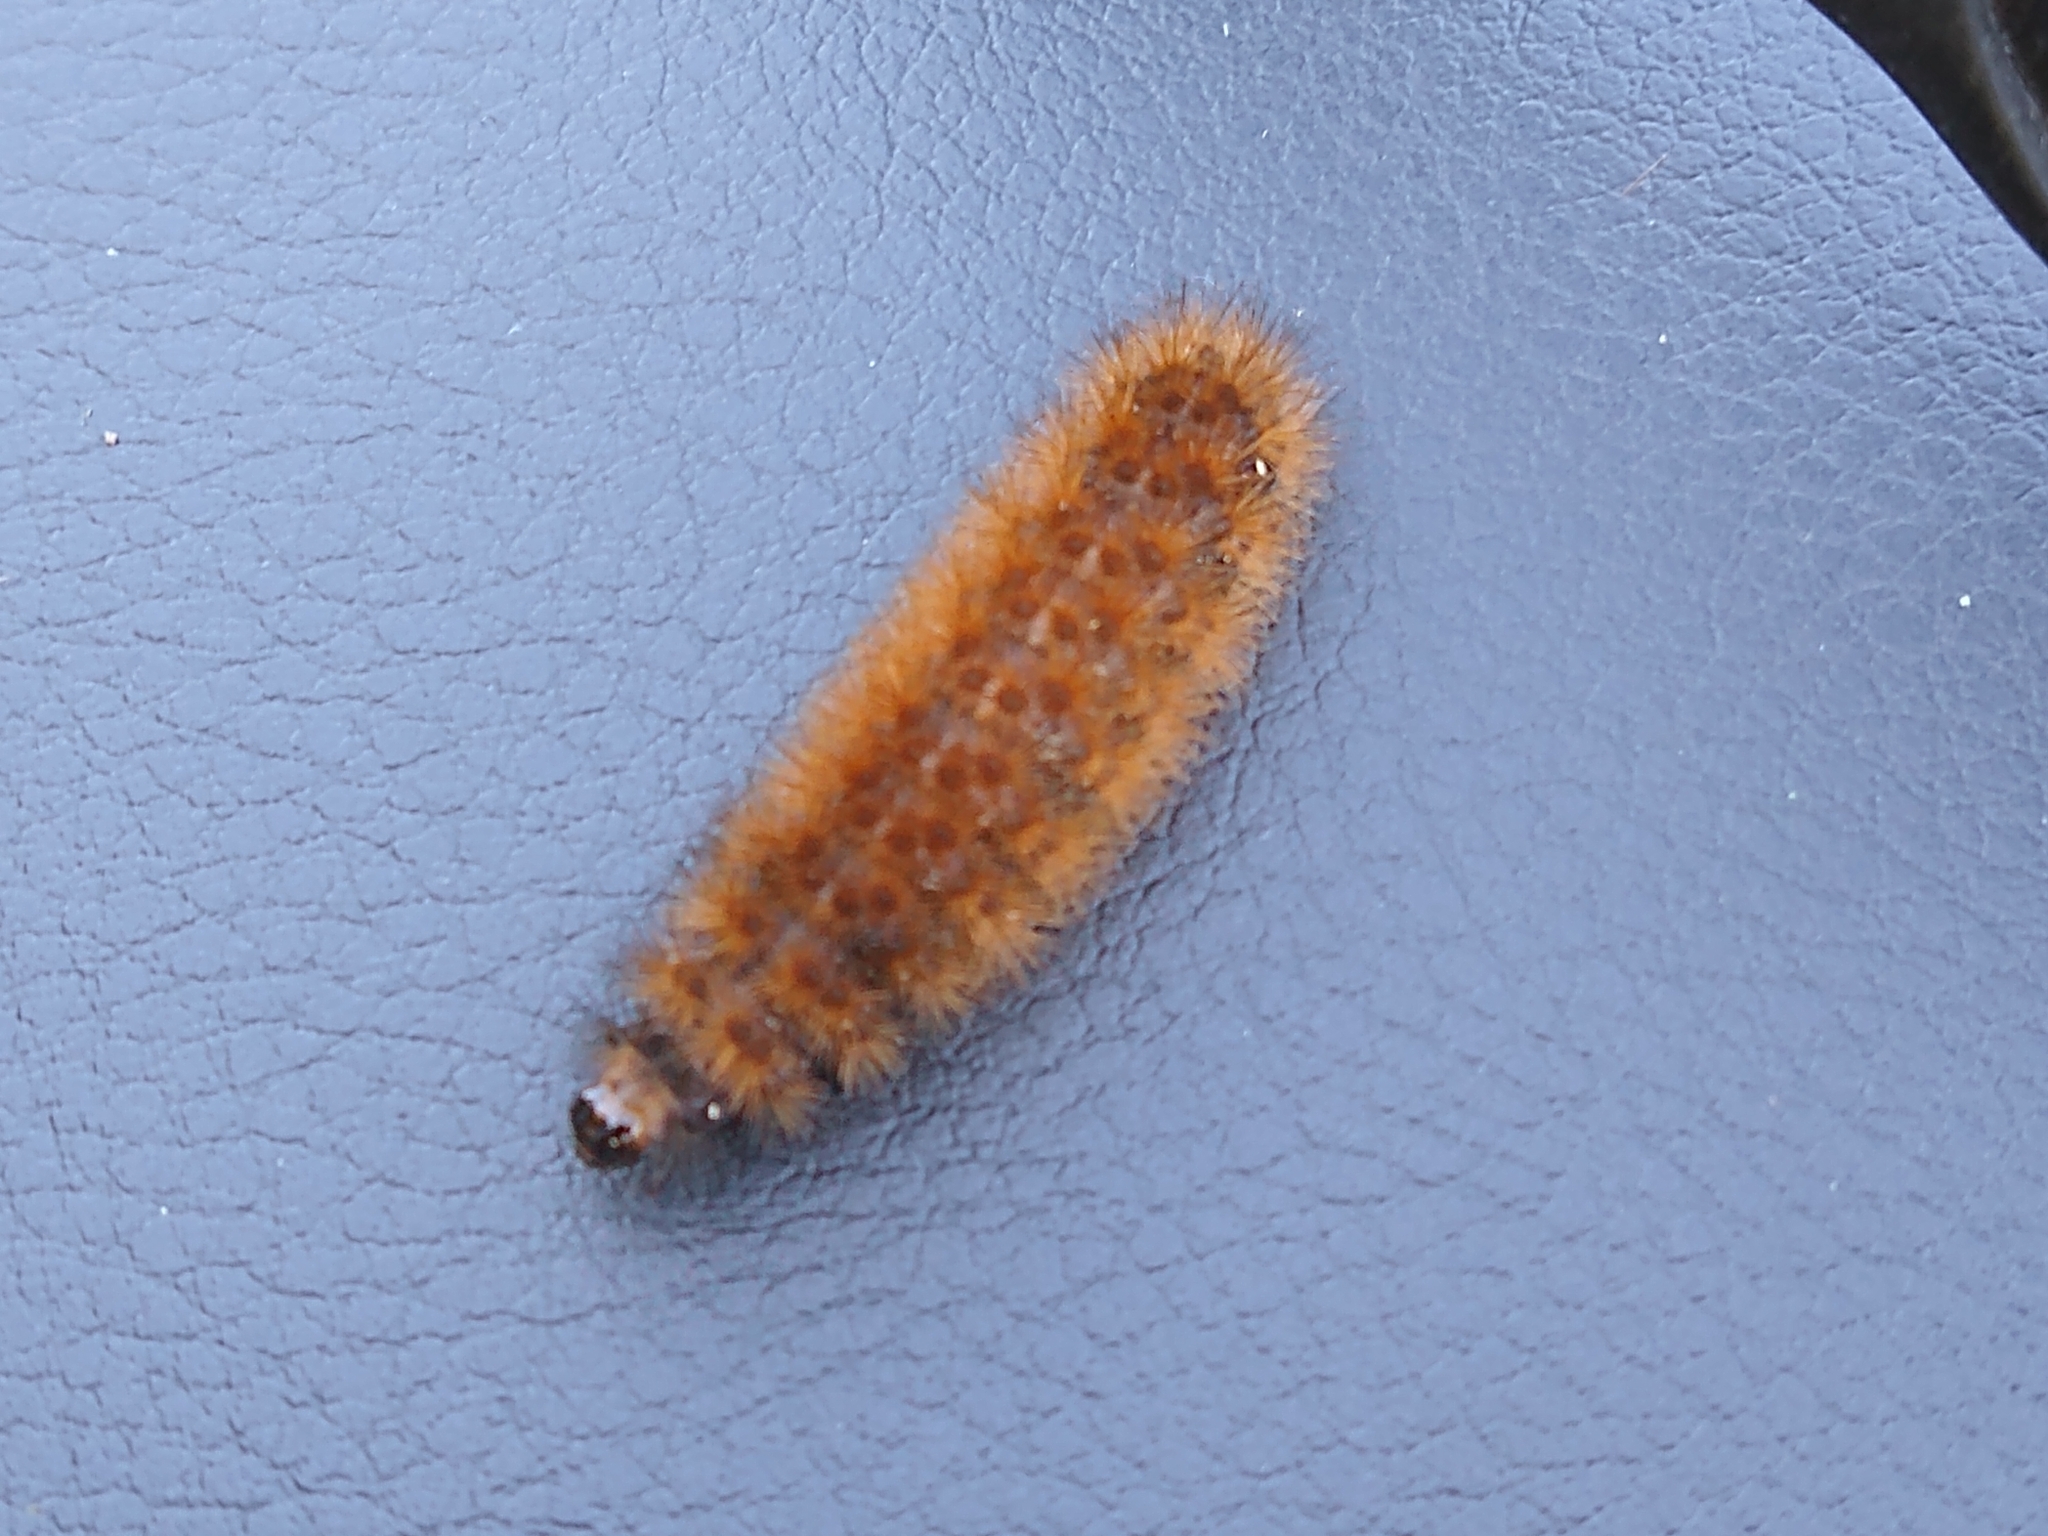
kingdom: Animalia
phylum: Arthropoda
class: Insecta
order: Lepidoptera
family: Erebidae
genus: Pyrrharctia
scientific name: Pyrrharctia isabella
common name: Isabella tiger moth
